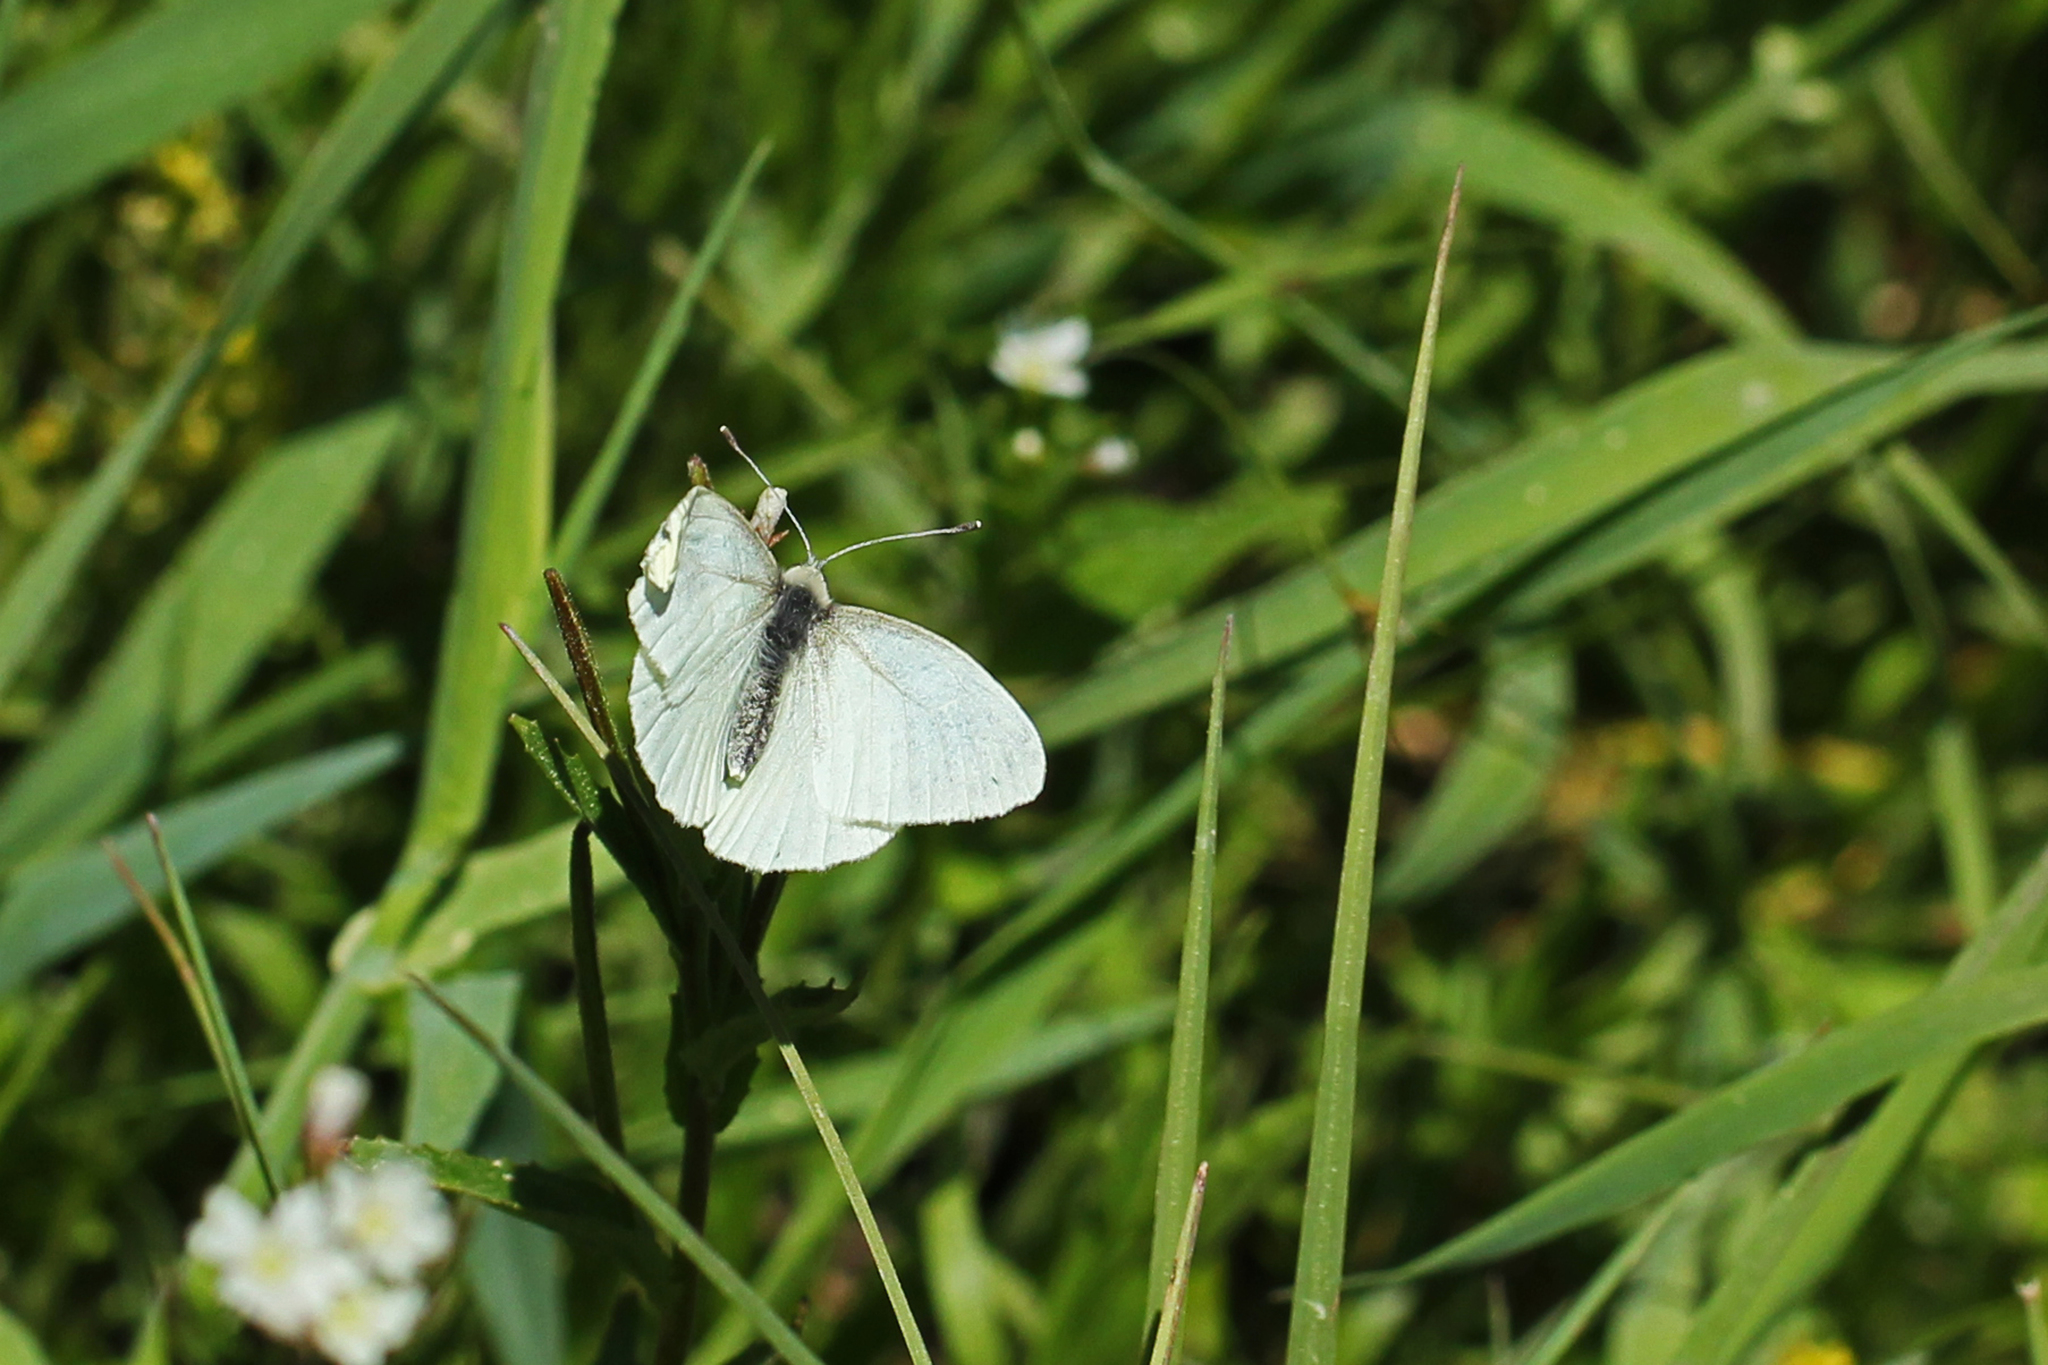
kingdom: Animalia
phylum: Arthropoda
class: Insecta
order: Lepidoptera
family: Pieridae
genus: Pieris
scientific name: Pieris marginalis
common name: Margined white
